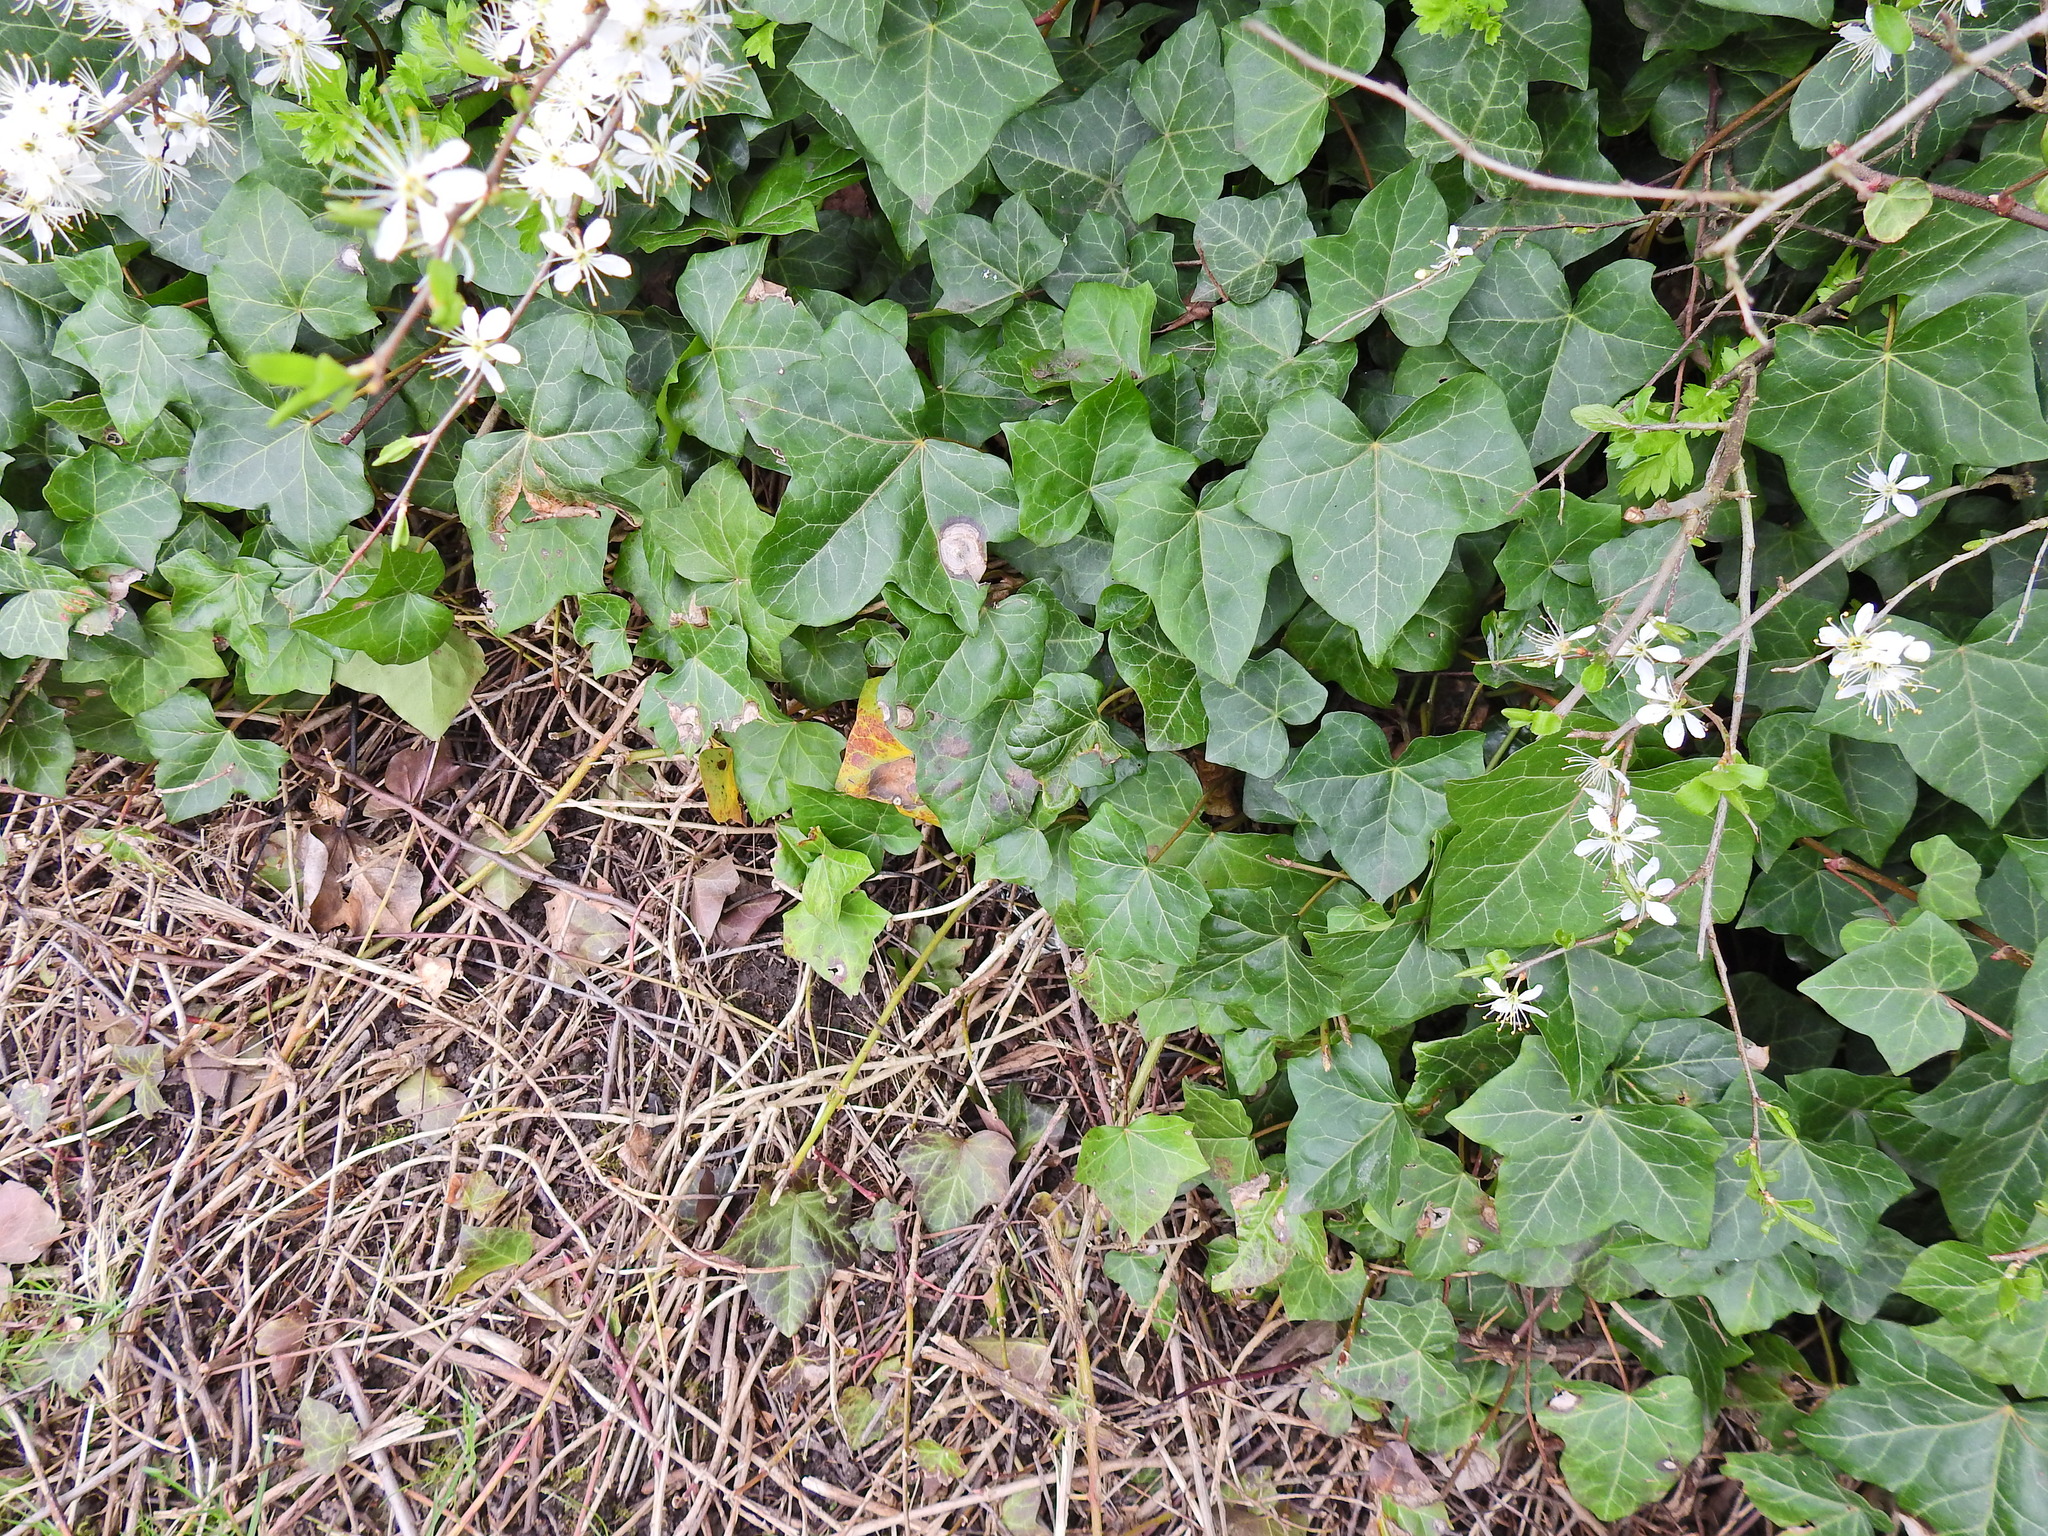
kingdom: Plantae
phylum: Tracheophyta
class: Magnoliopsida
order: Apiales
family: Araliaceae
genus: Hedera
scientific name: Hedera helix
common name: Ivy
